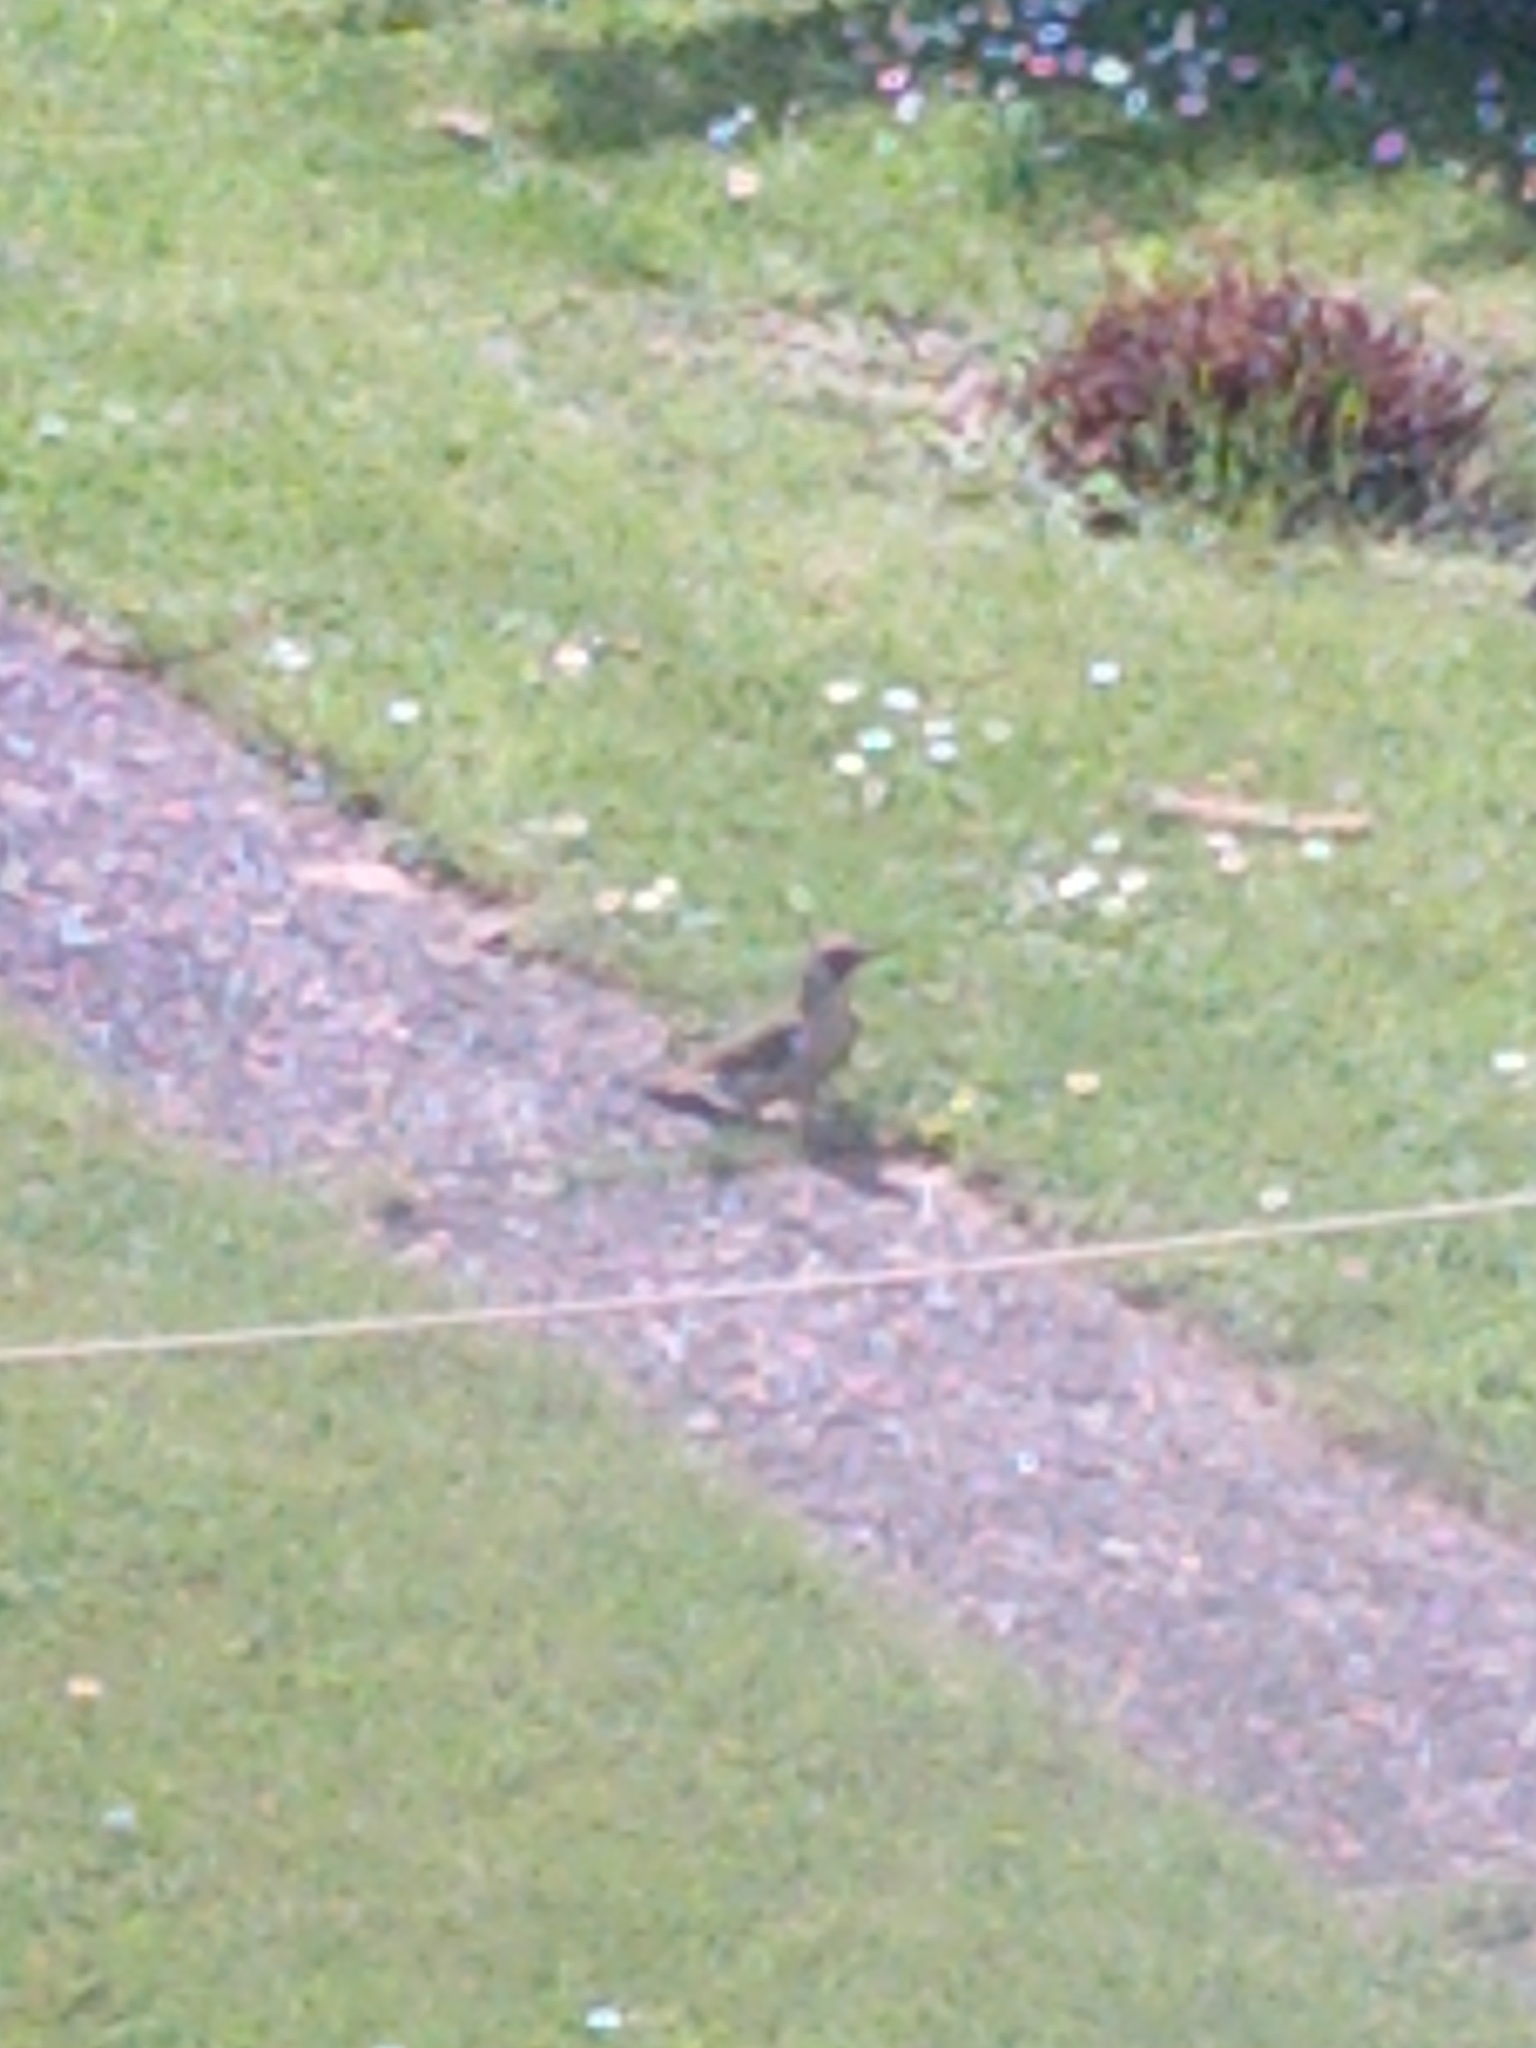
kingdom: Animalia
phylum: Chordata
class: Aves
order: Piciformes
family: Picidae
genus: Picus
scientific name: Picus viridis
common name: European green woodpecker
